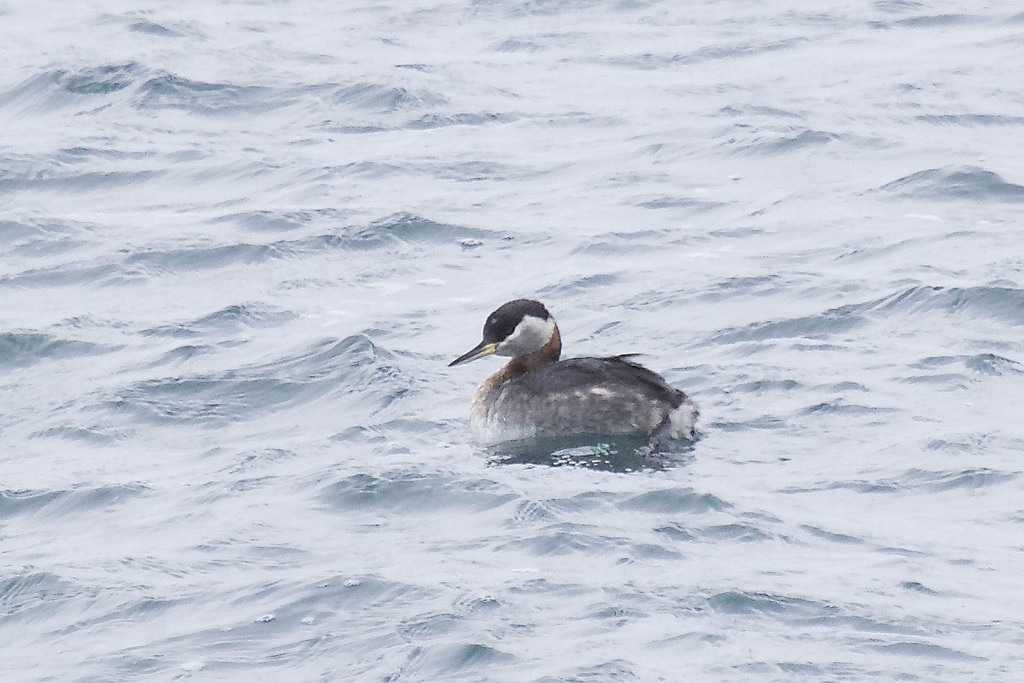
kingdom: Animalia
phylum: Chordata
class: Aves
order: Podicipediformes
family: Podicipedidae
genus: Podiceps
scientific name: Podiceps grisegena
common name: Red-necked grebe
